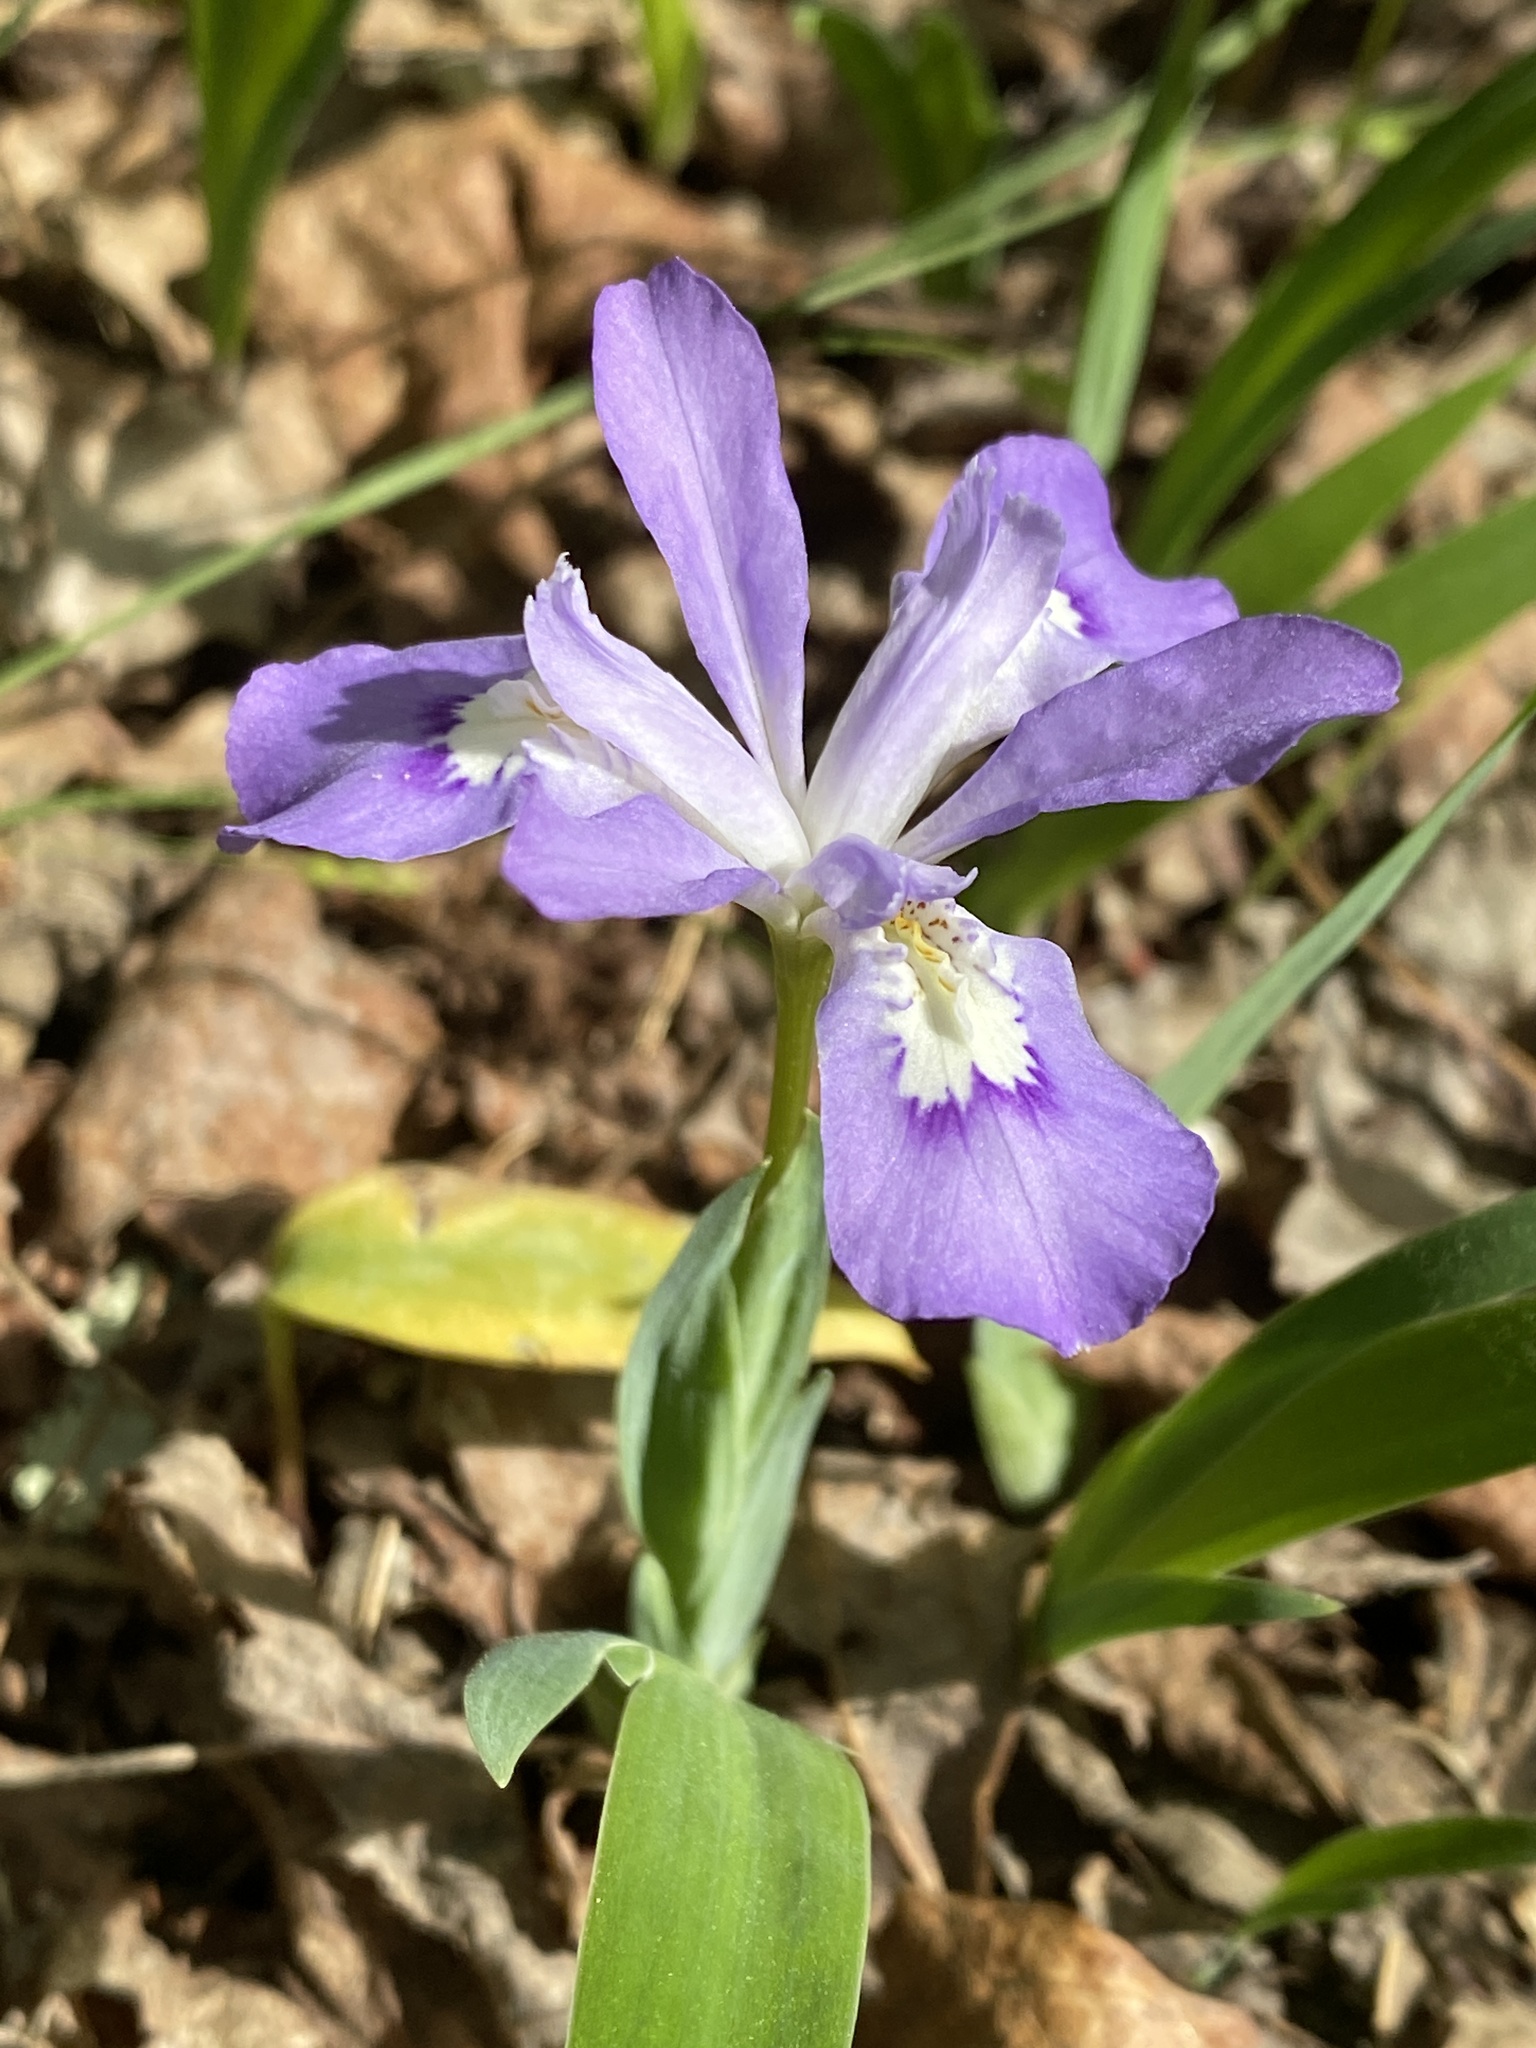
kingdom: Plantae
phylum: Tracheophyta
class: Liliopsida
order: Asparagales
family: Iridaceae
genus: Iris
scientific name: Iris cristata
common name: Crested iris
